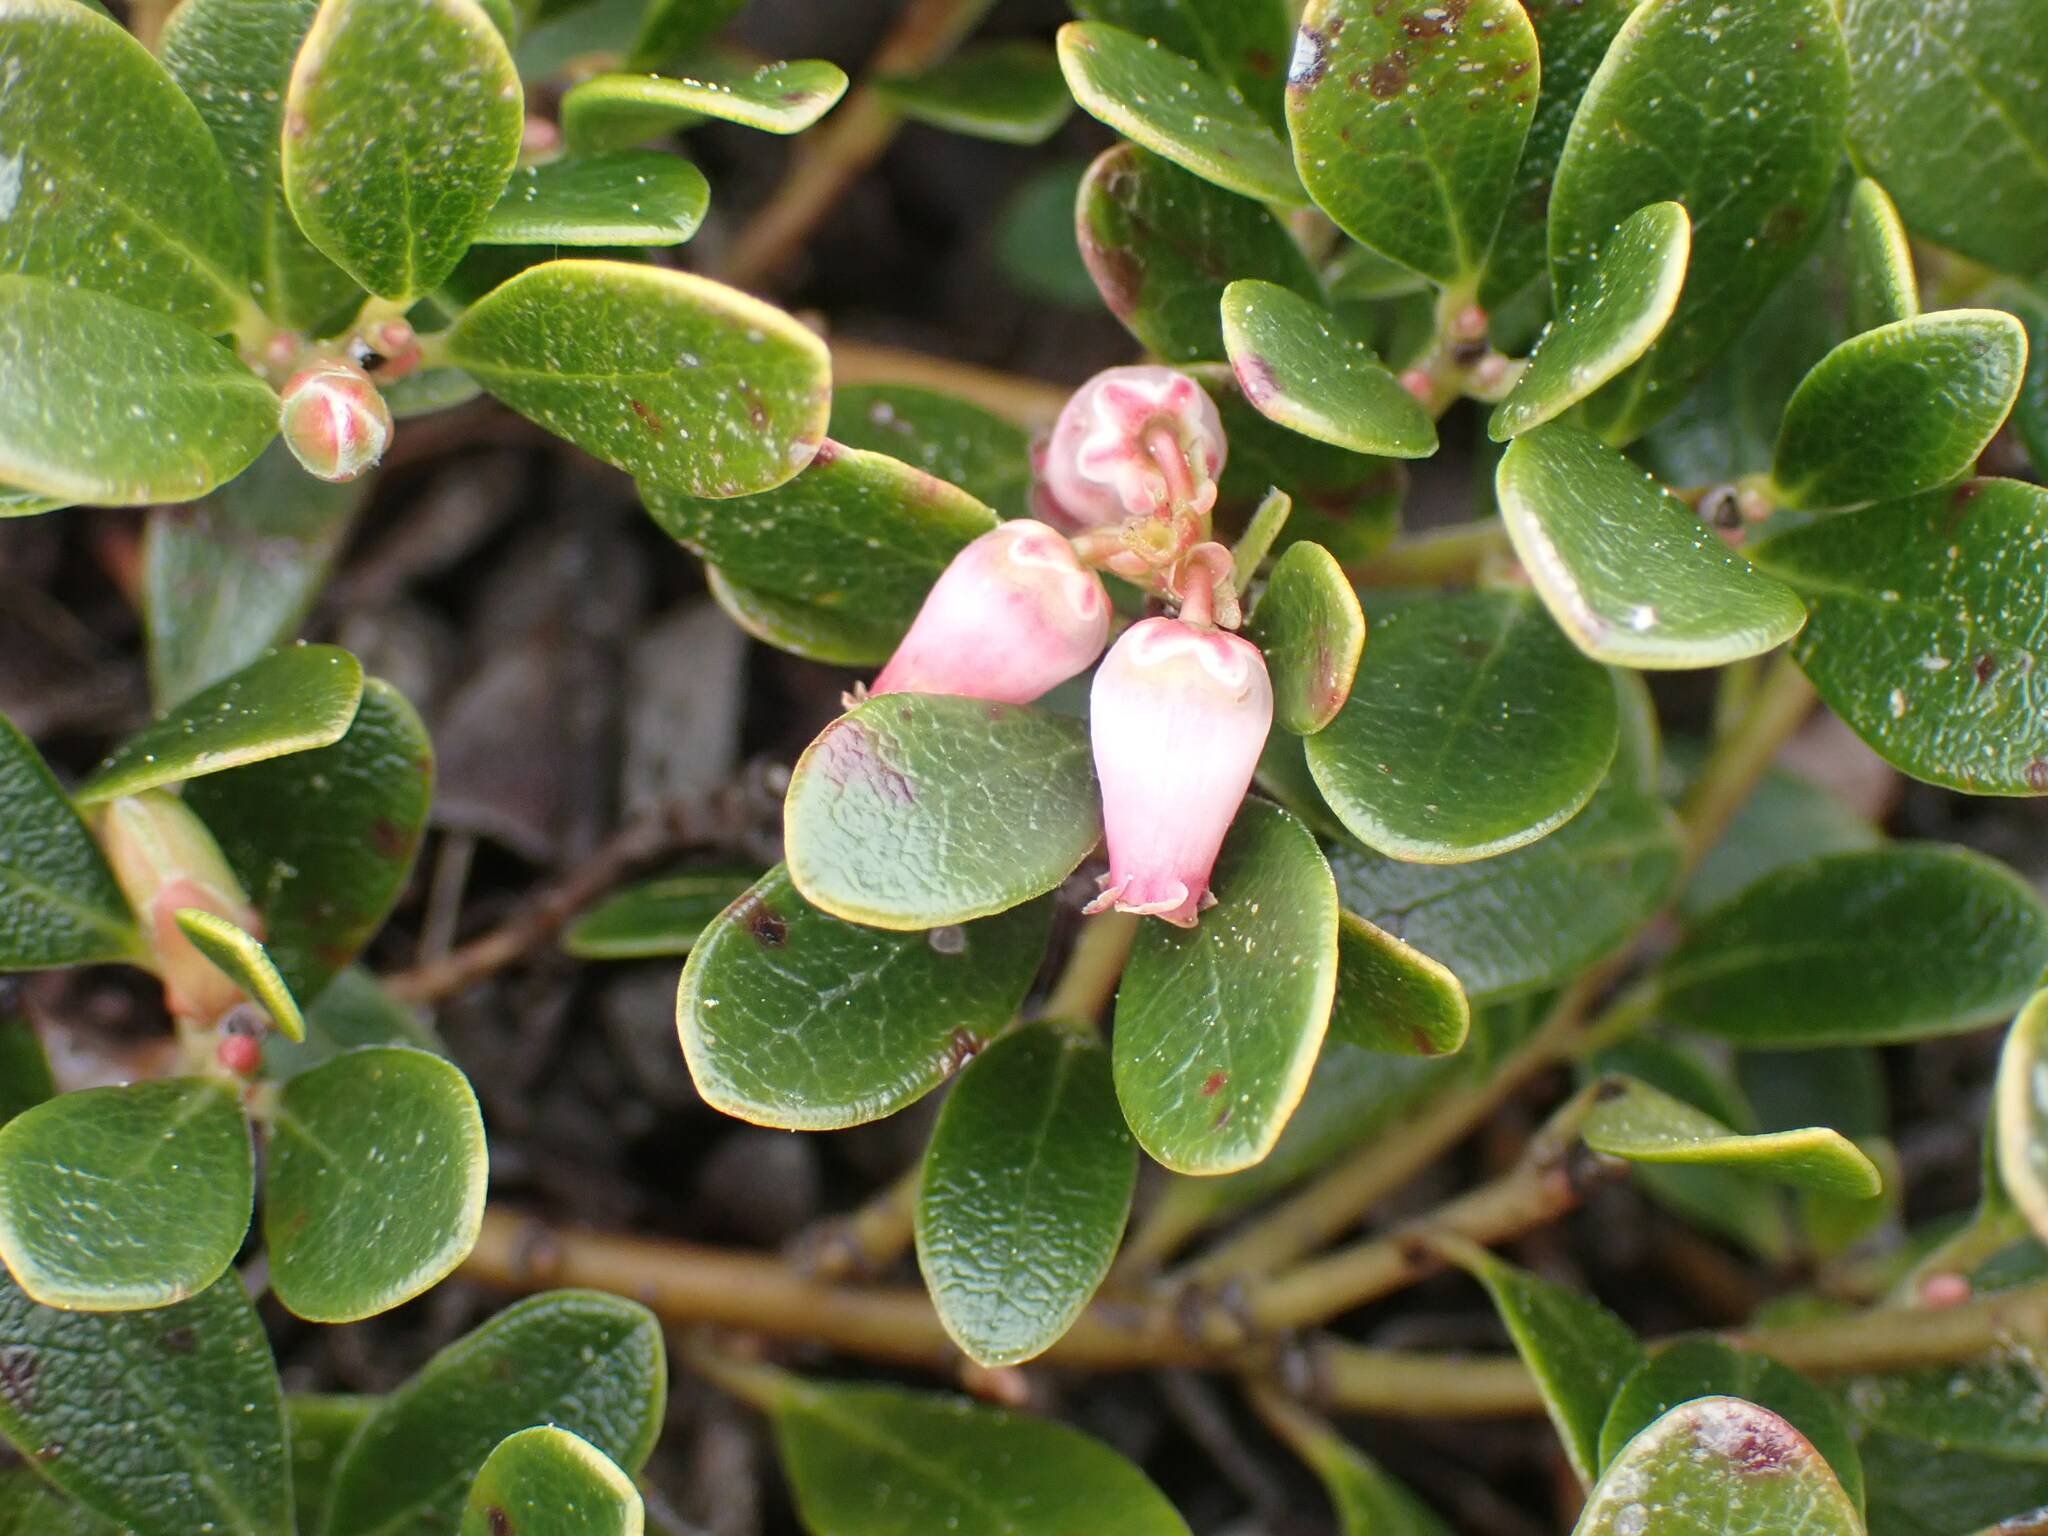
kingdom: Plantae
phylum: Tracheophyta
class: Magnoliopsida
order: Ericales
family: Ericaceae
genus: Arctostaphylos
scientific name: Arctostaphylos uva-ursi
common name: Bearberry
